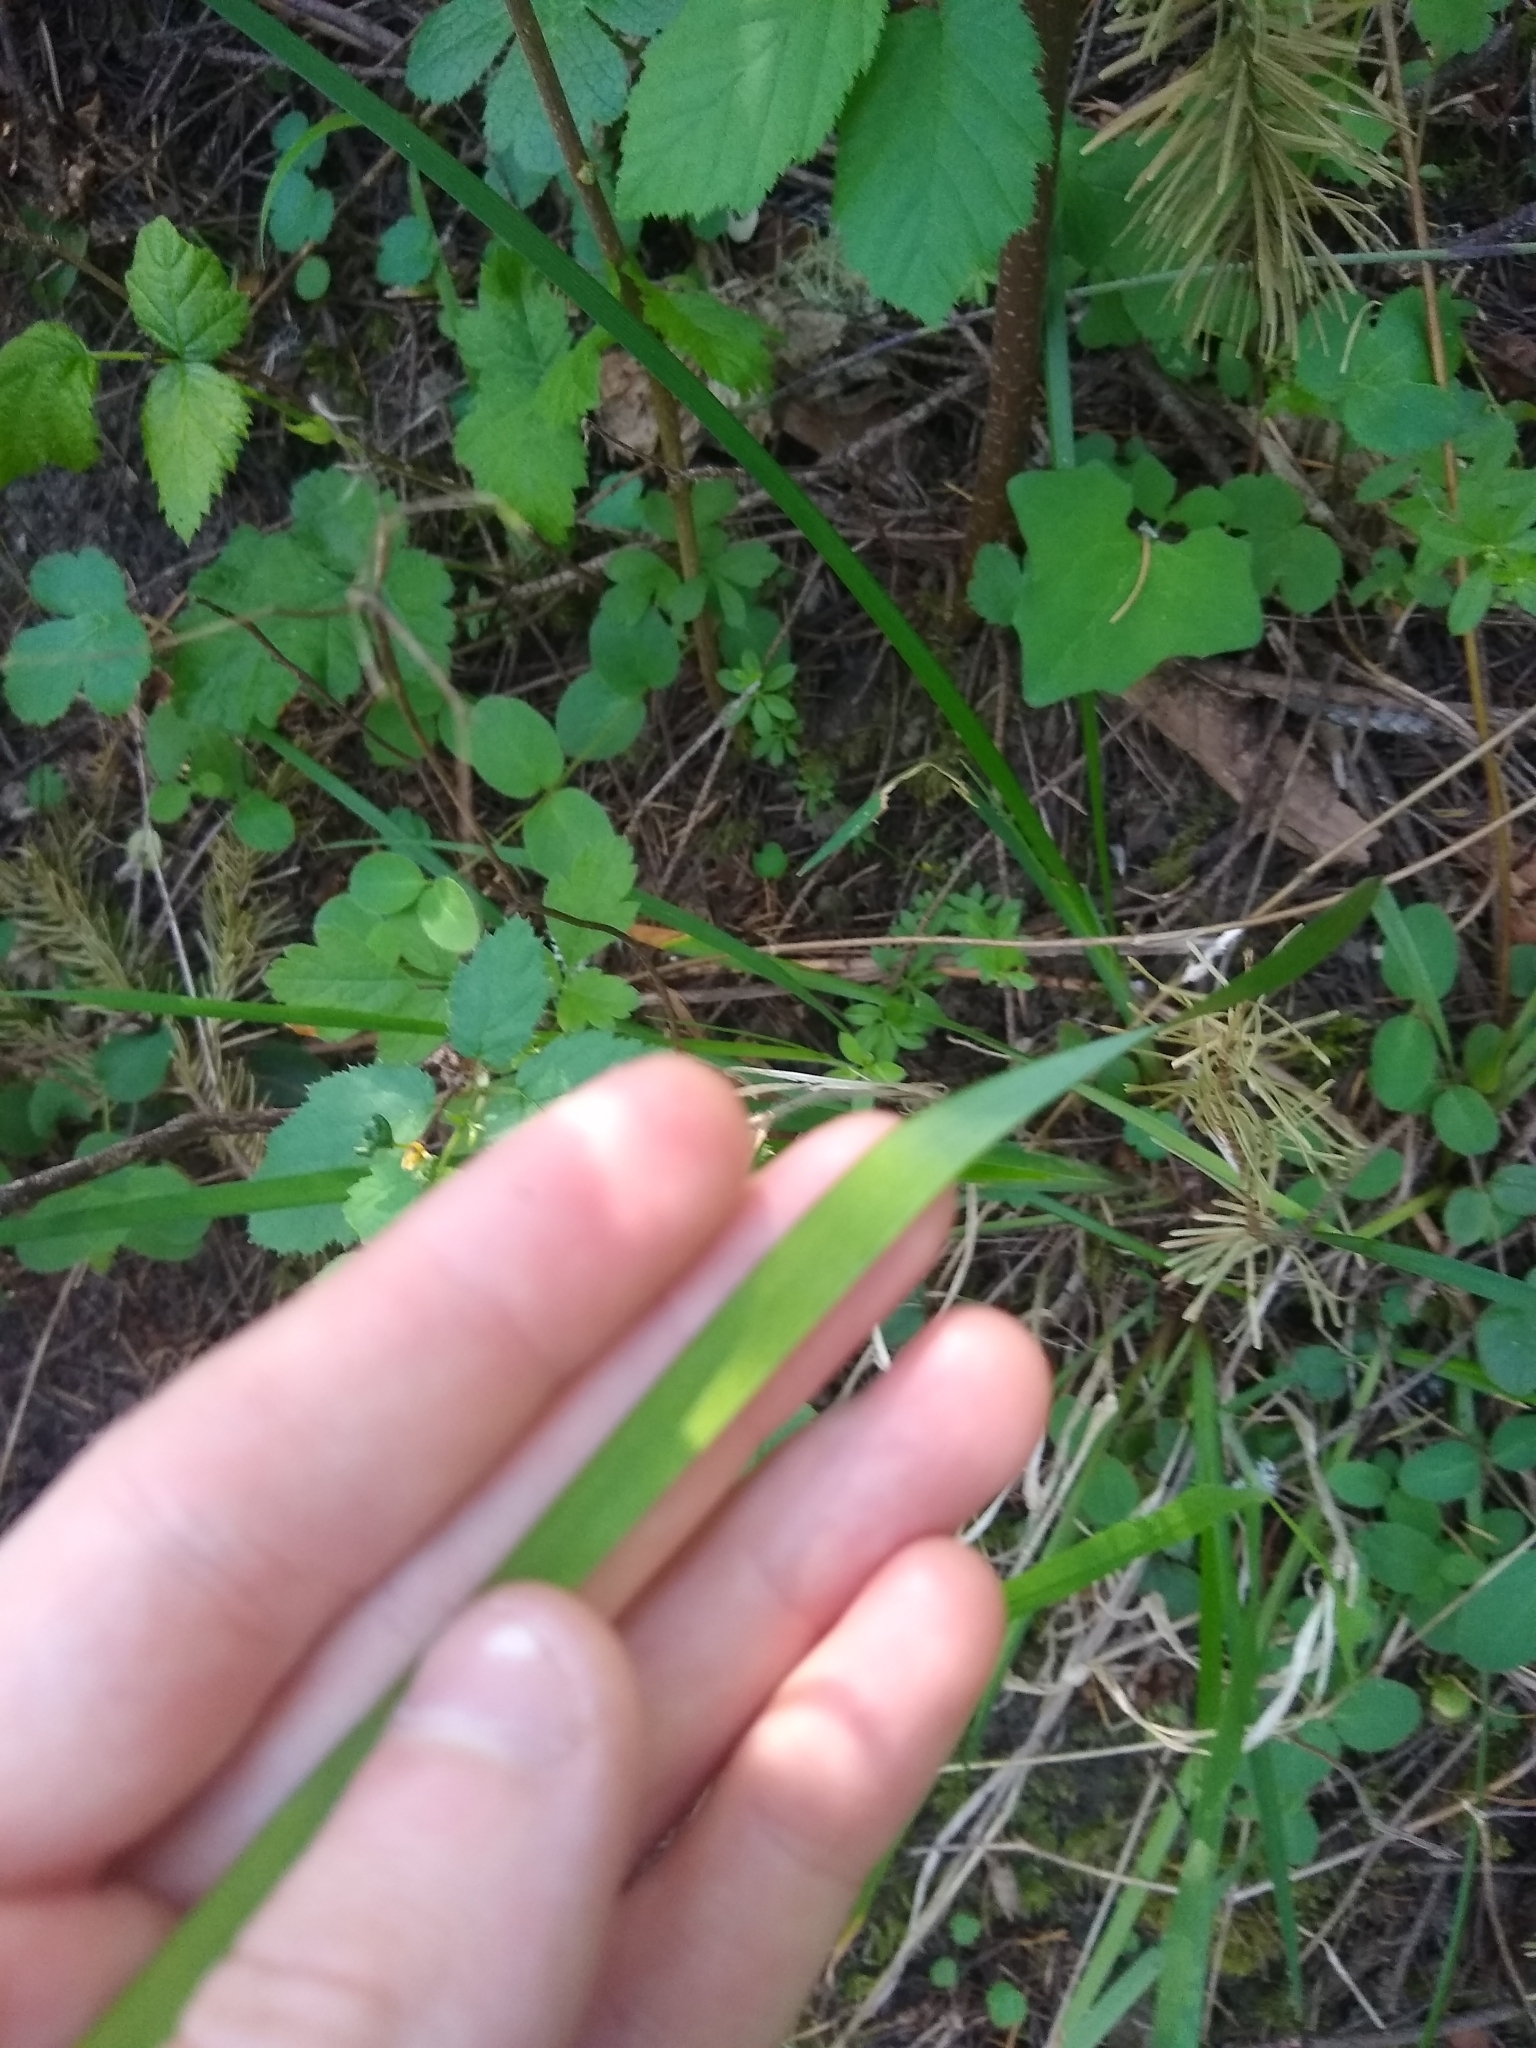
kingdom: Plantae
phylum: Tracheophyta
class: Liliopsida
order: Asparagales
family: Iridaceae
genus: Iris
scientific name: Iris tenax
